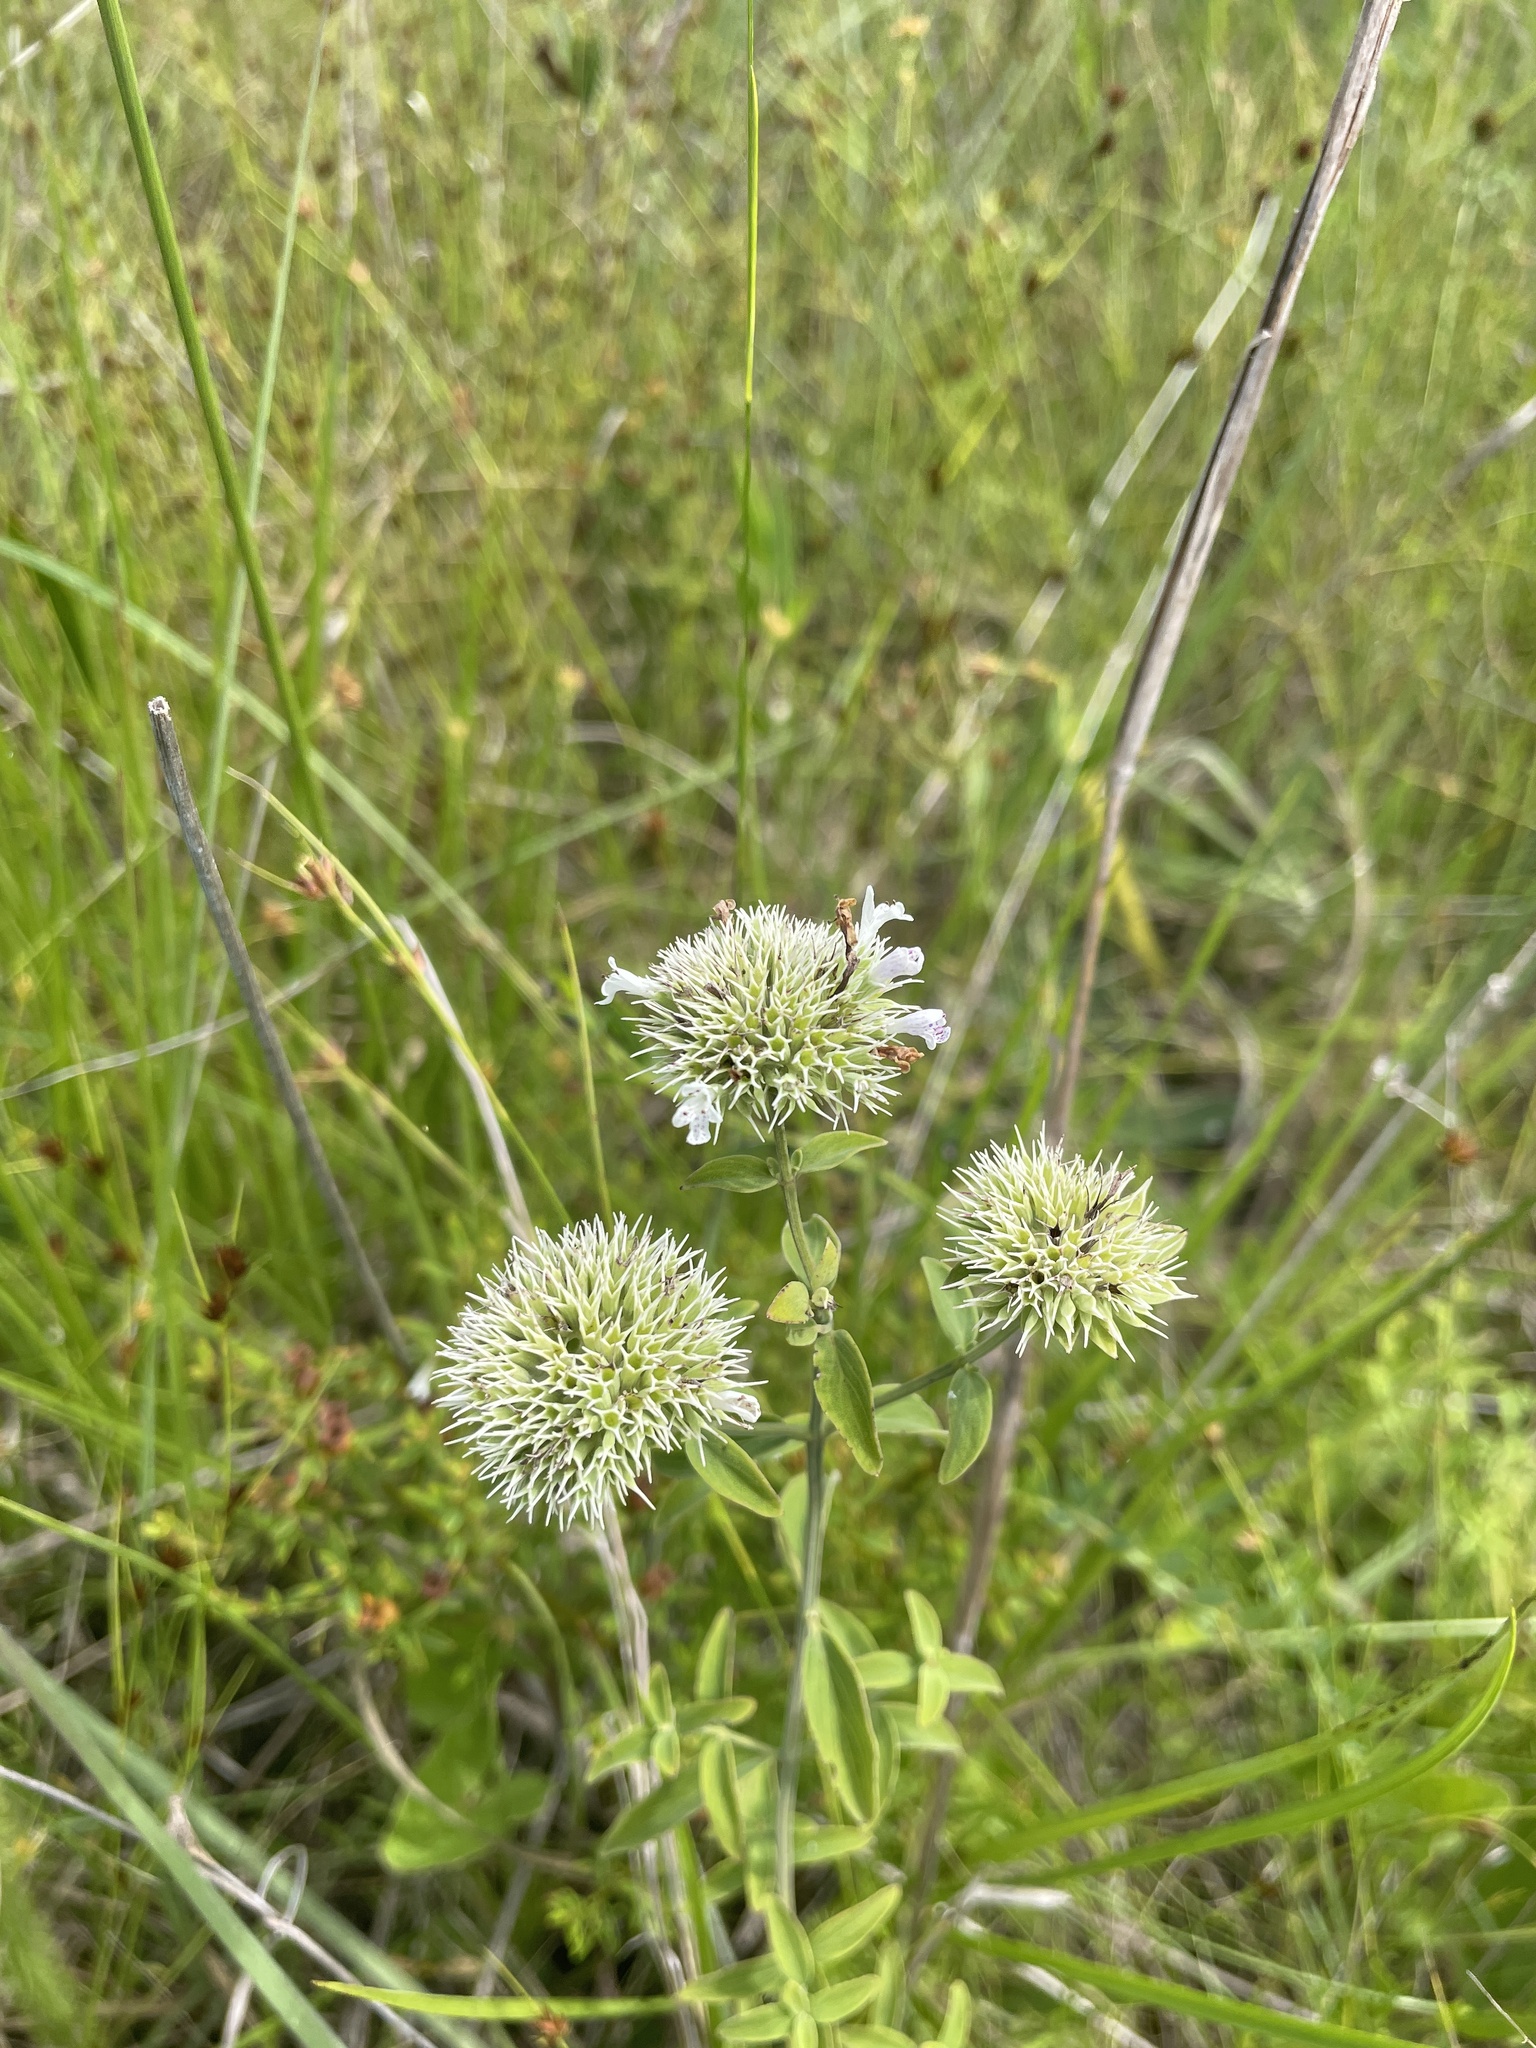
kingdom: Plantae
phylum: Tracheophyta
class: Magnoliopsida
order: Lamiales
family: Lamiaceae
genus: Pycnanthemum
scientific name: Pycnanthemum flexuosum
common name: Appalachian mountain-mint
